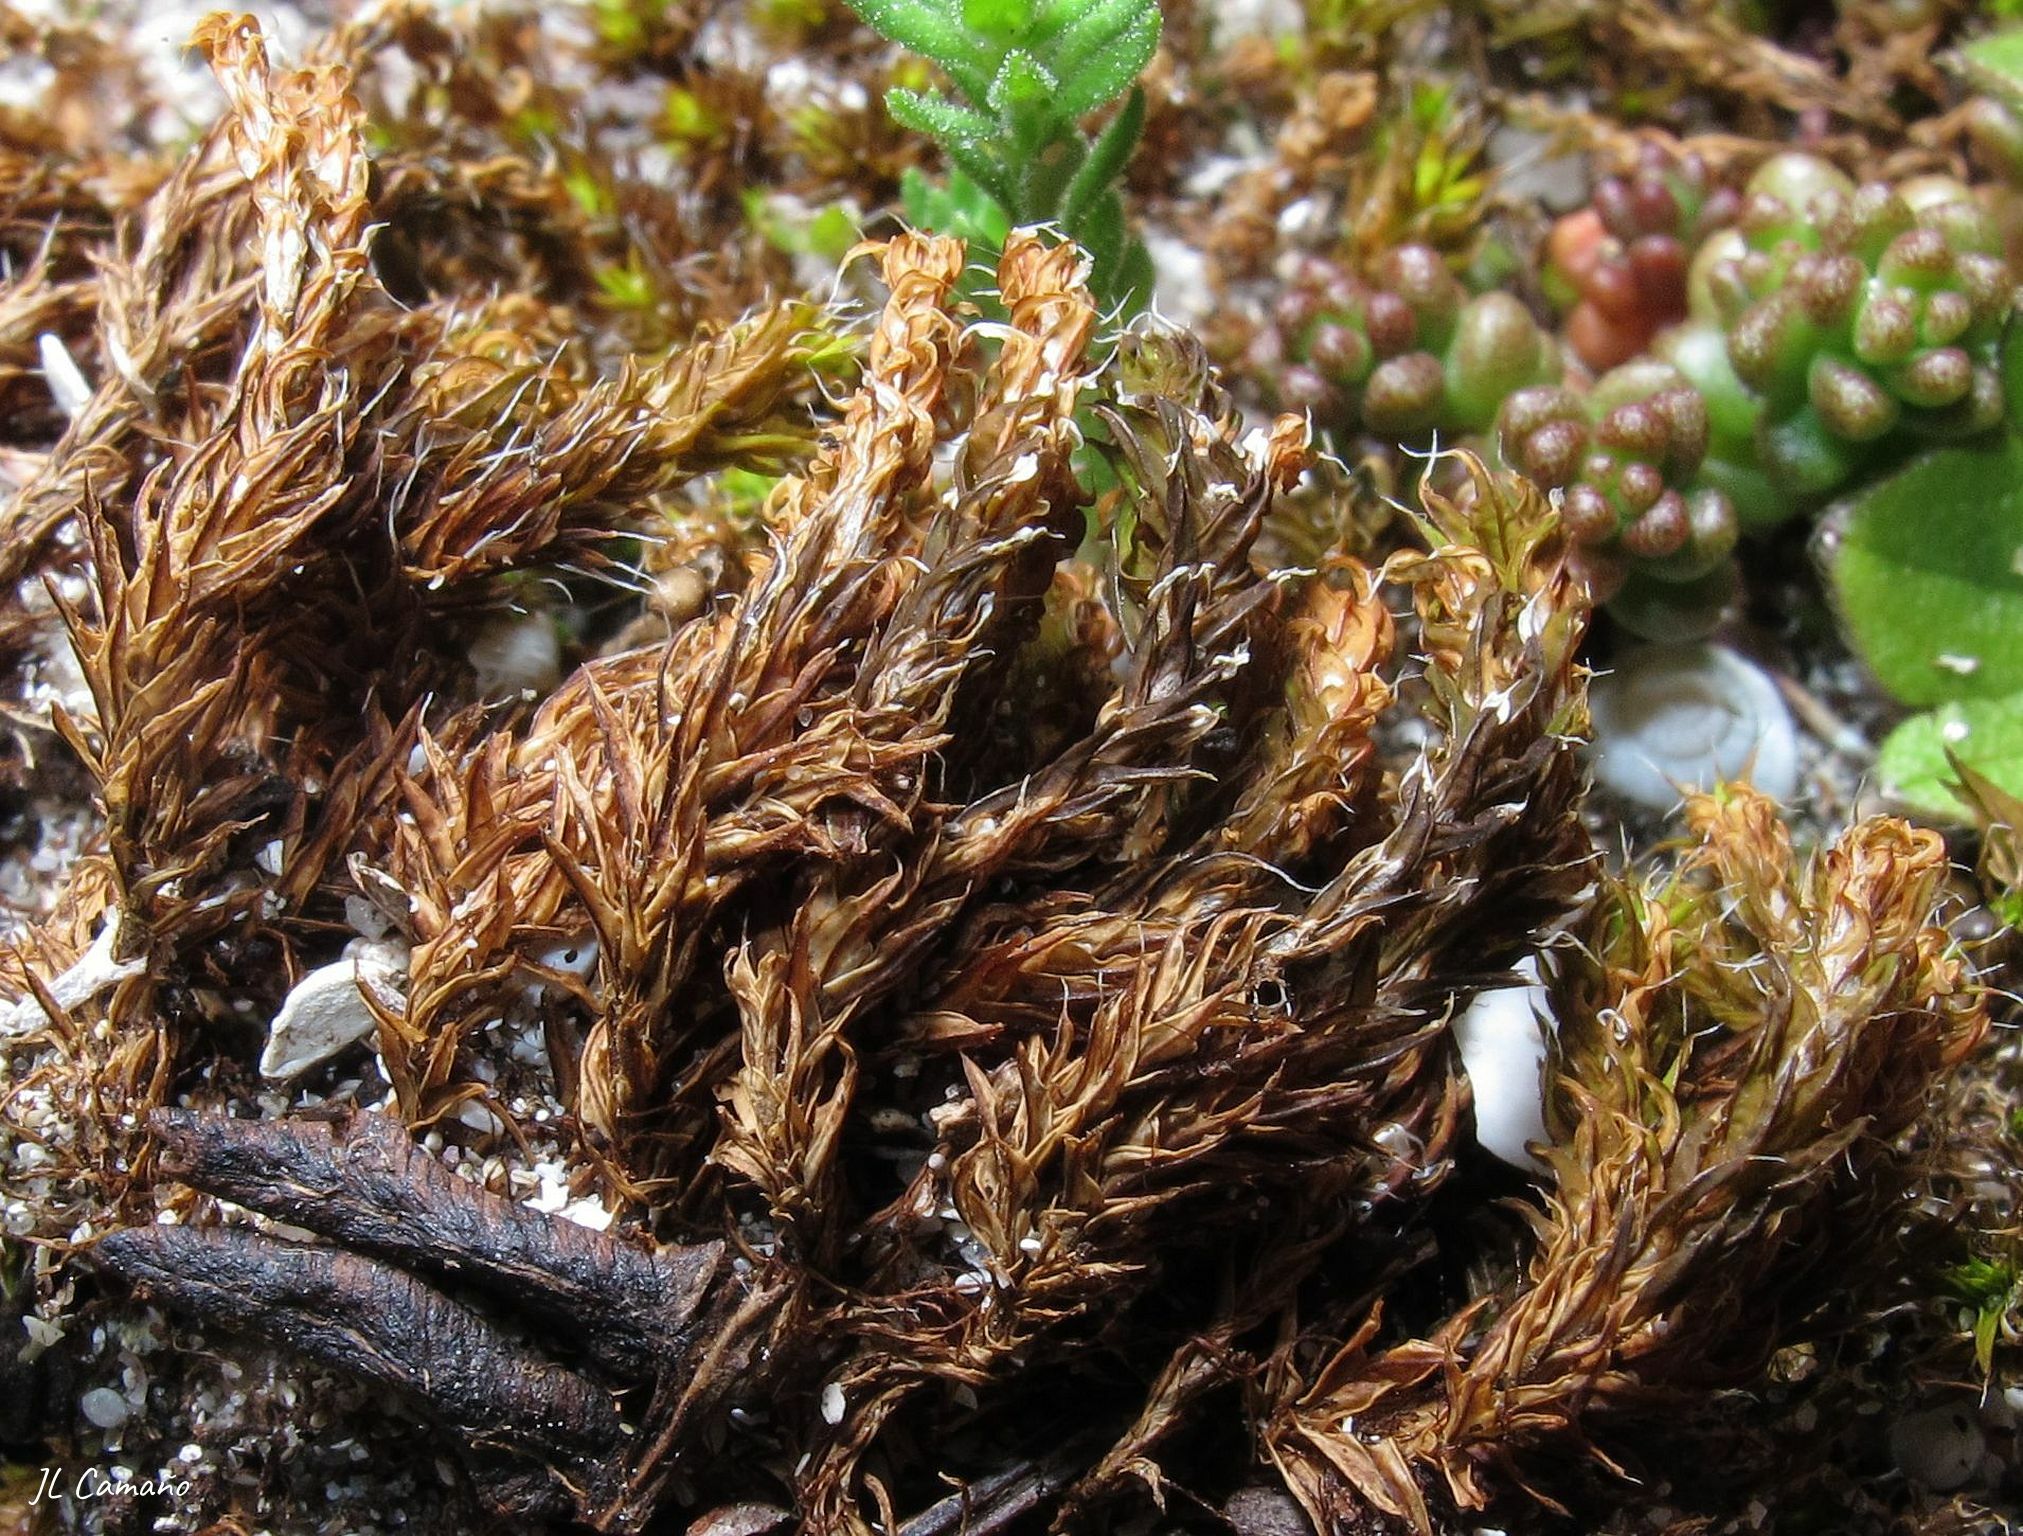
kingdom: Plantae
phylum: Bryophyta
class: Bryopsida
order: Pottiales
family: Pottiaceae
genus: Syntrichia
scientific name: Syntrichia ruralis
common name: Sidewalk screw moss
